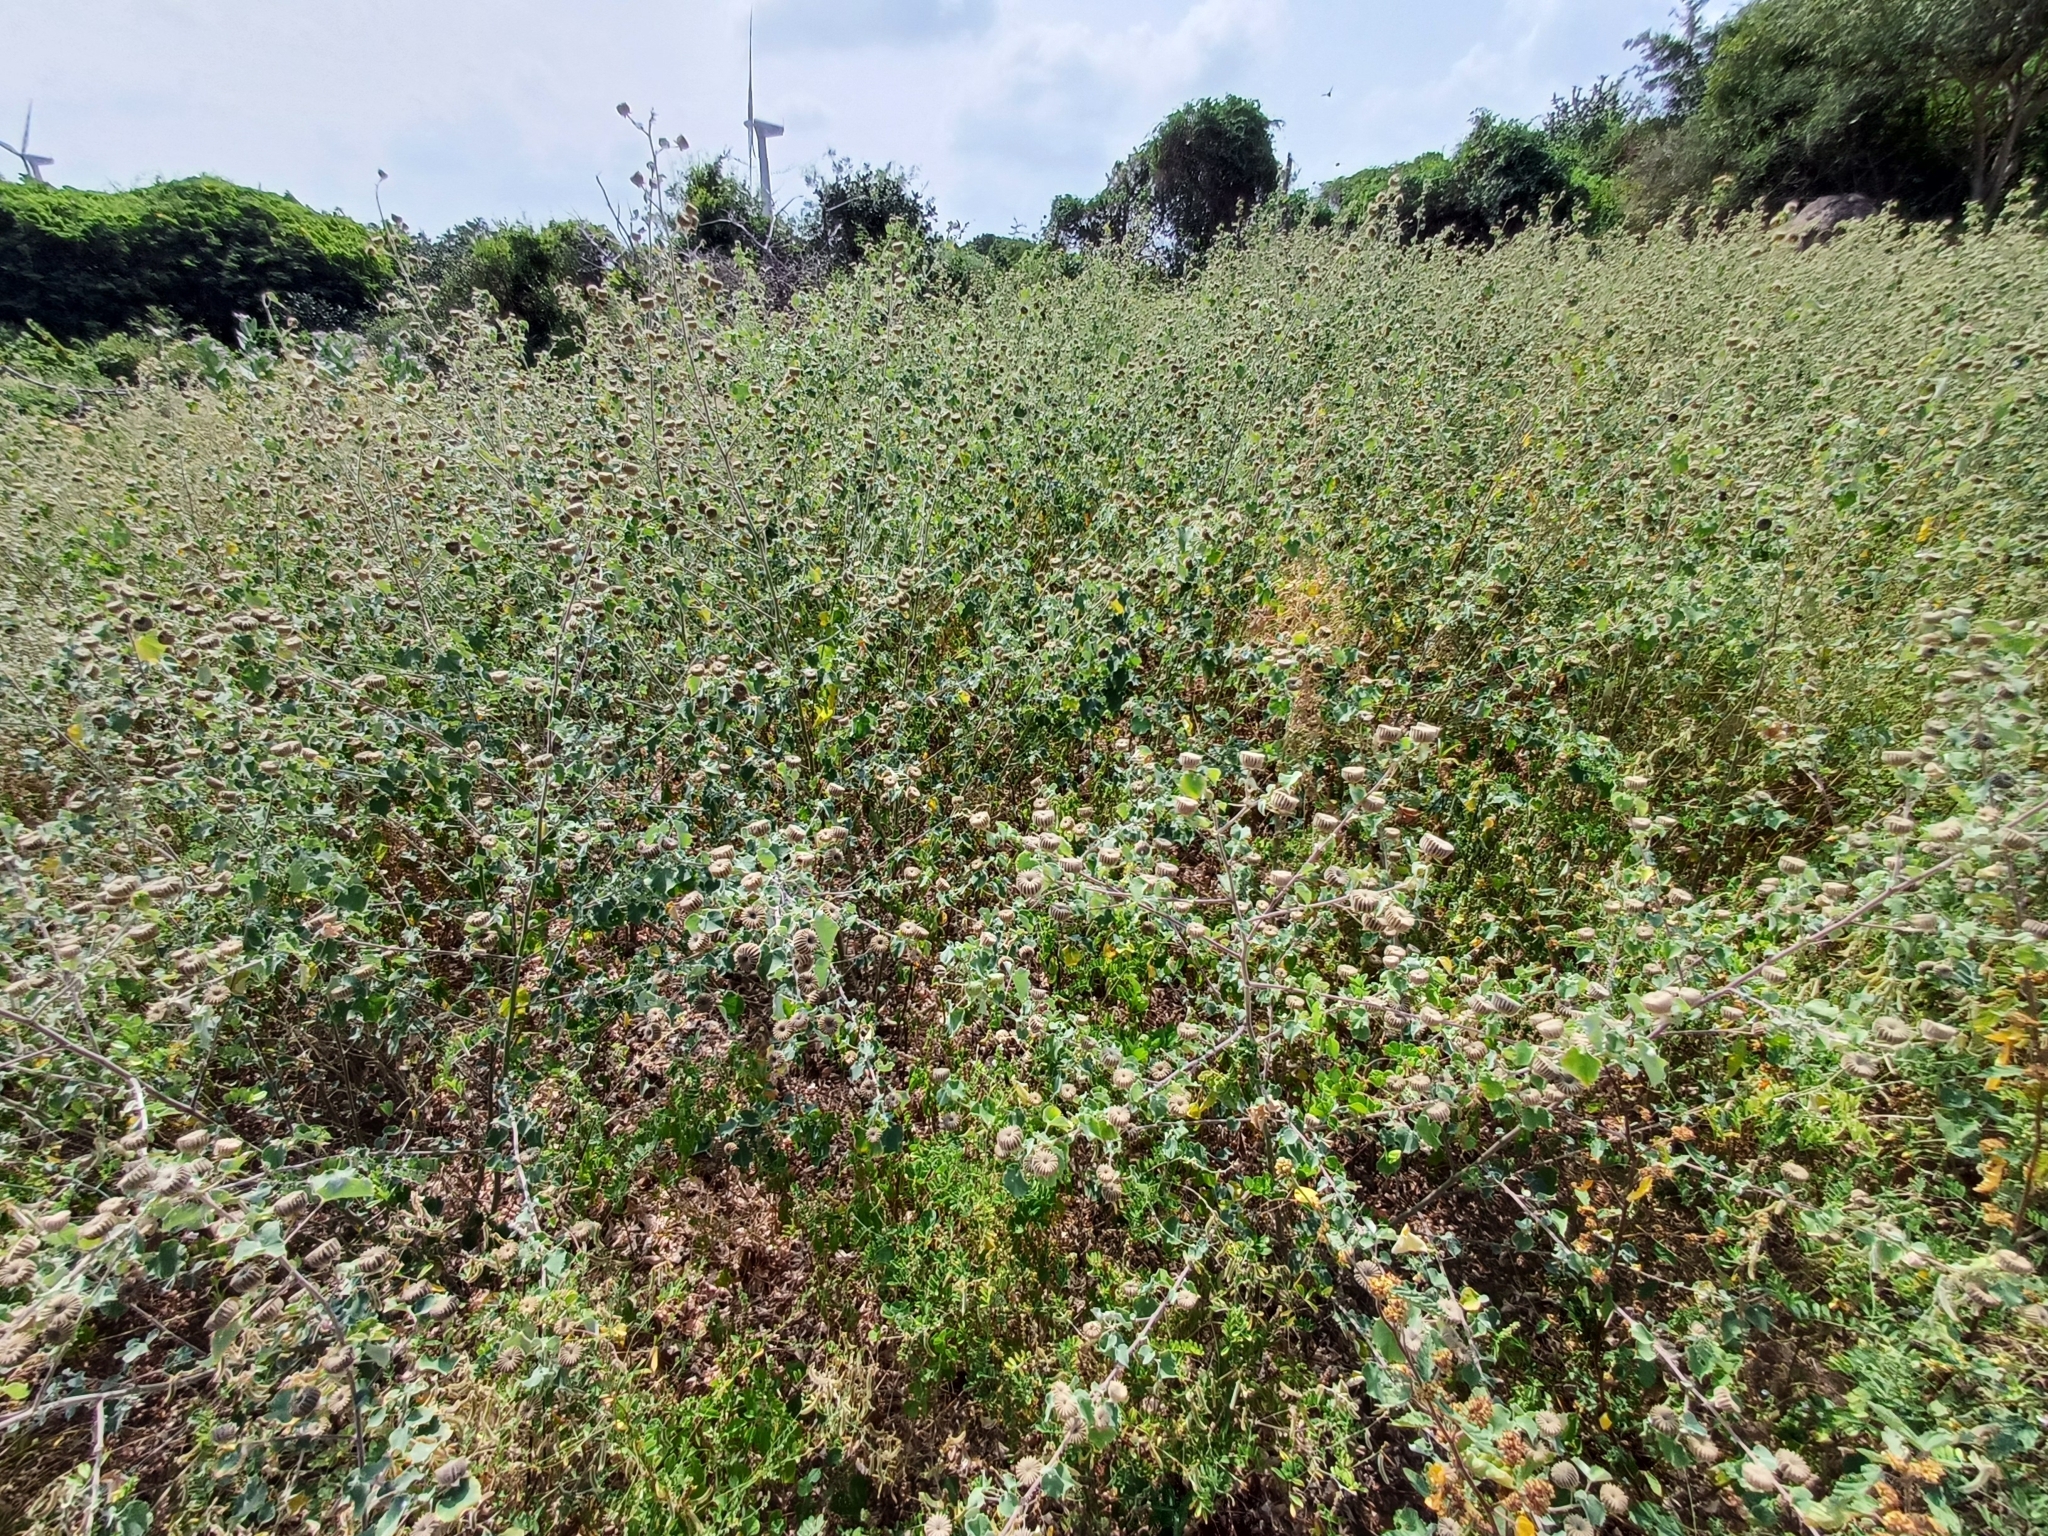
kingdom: Plantae
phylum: Tracheophyta
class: Magnoliopsida
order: Malvales
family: Malvaceae
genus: Abutilon
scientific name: Abutilon indicum
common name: Indian abutilon
